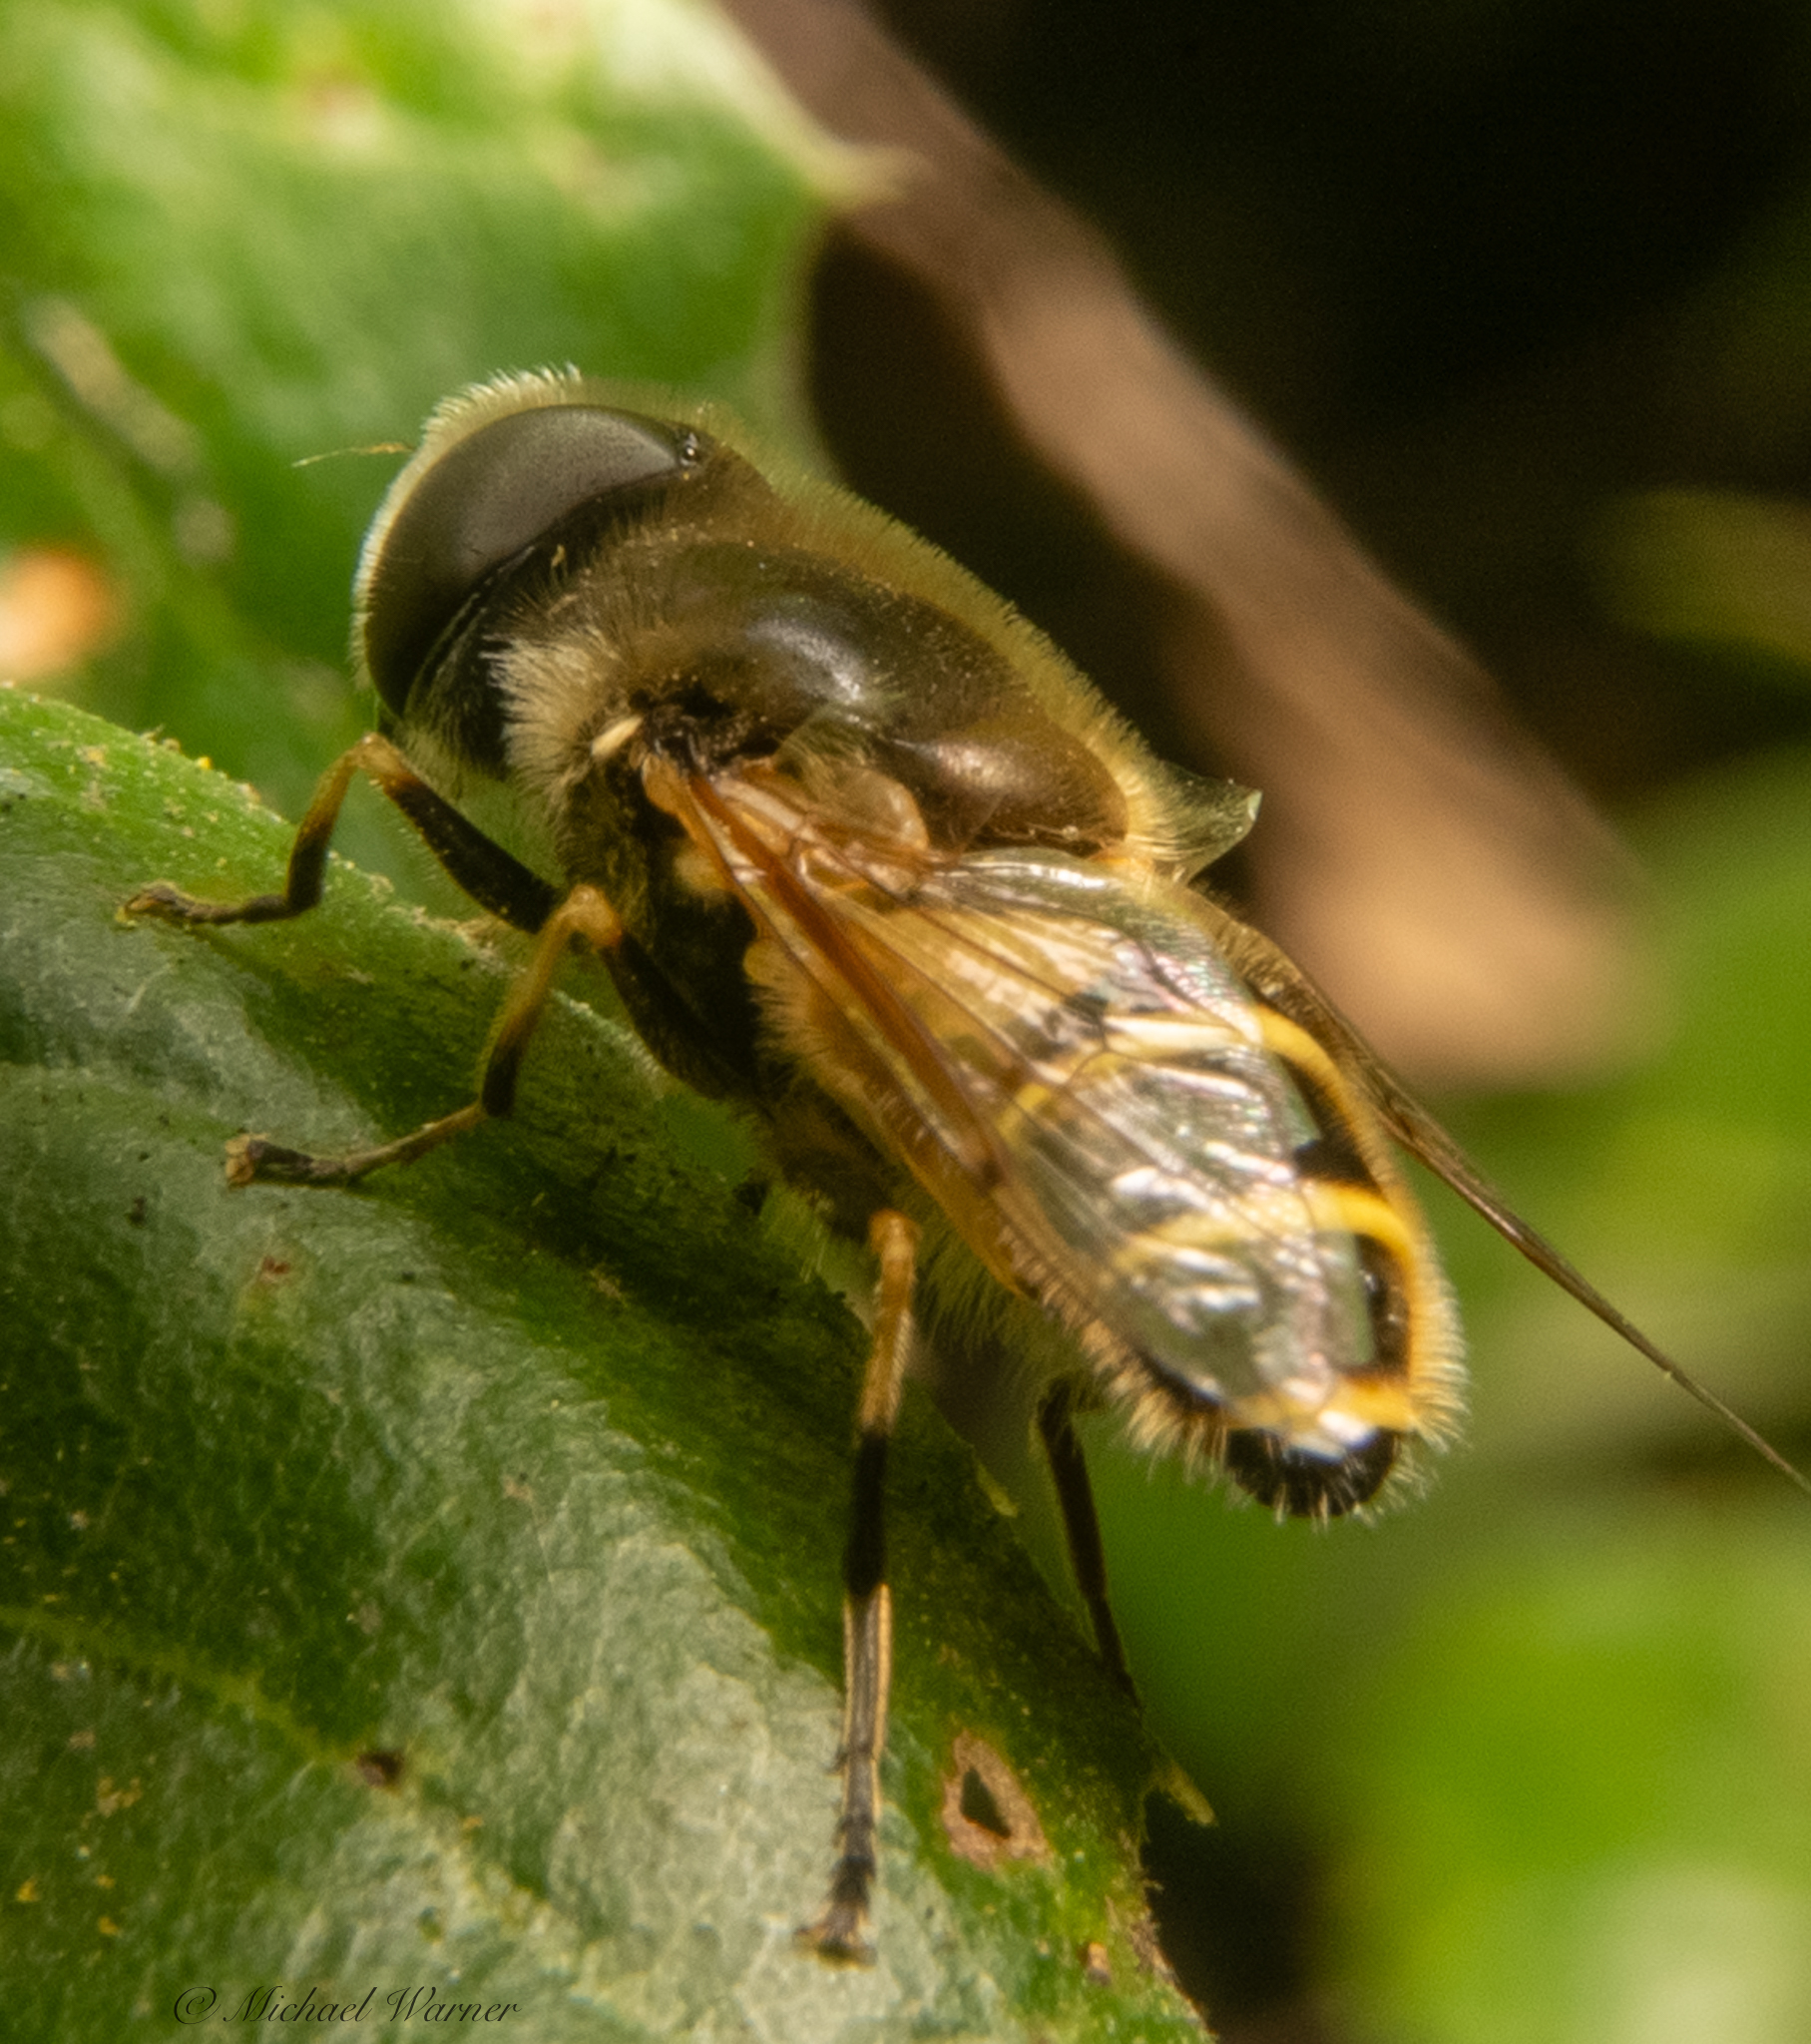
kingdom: Animalia
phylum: Arthropoda
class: Insecta
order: Diptera
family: Syrphidae
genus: Eristalis
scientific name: Eristalis hirta
